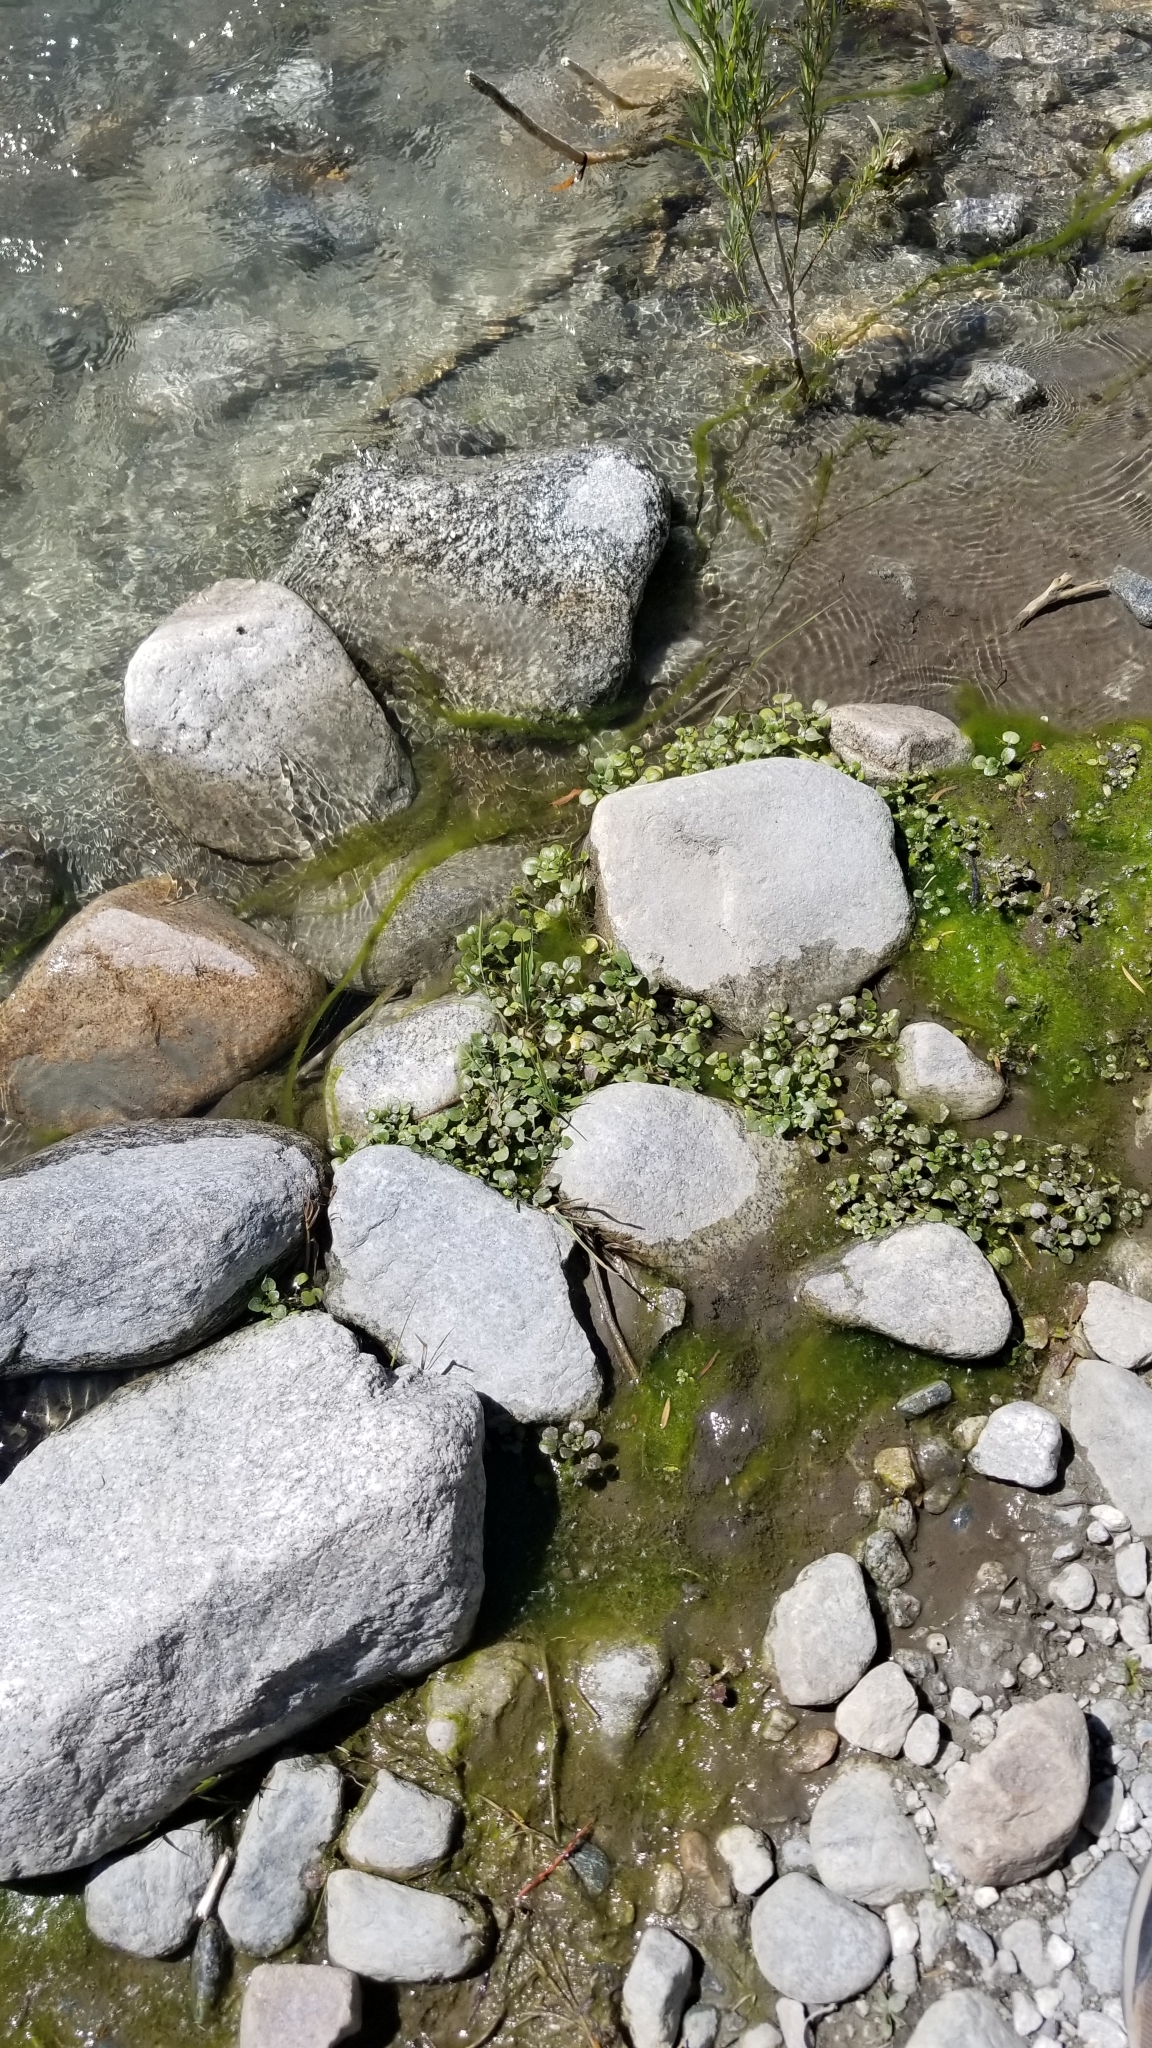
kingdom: Plantae
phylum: Tracheophyta
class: Magnoliopsida
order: Brassicales
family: Brassicaceae
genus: Nasturtium
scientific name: Nasturtium officinale
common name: Watercress
